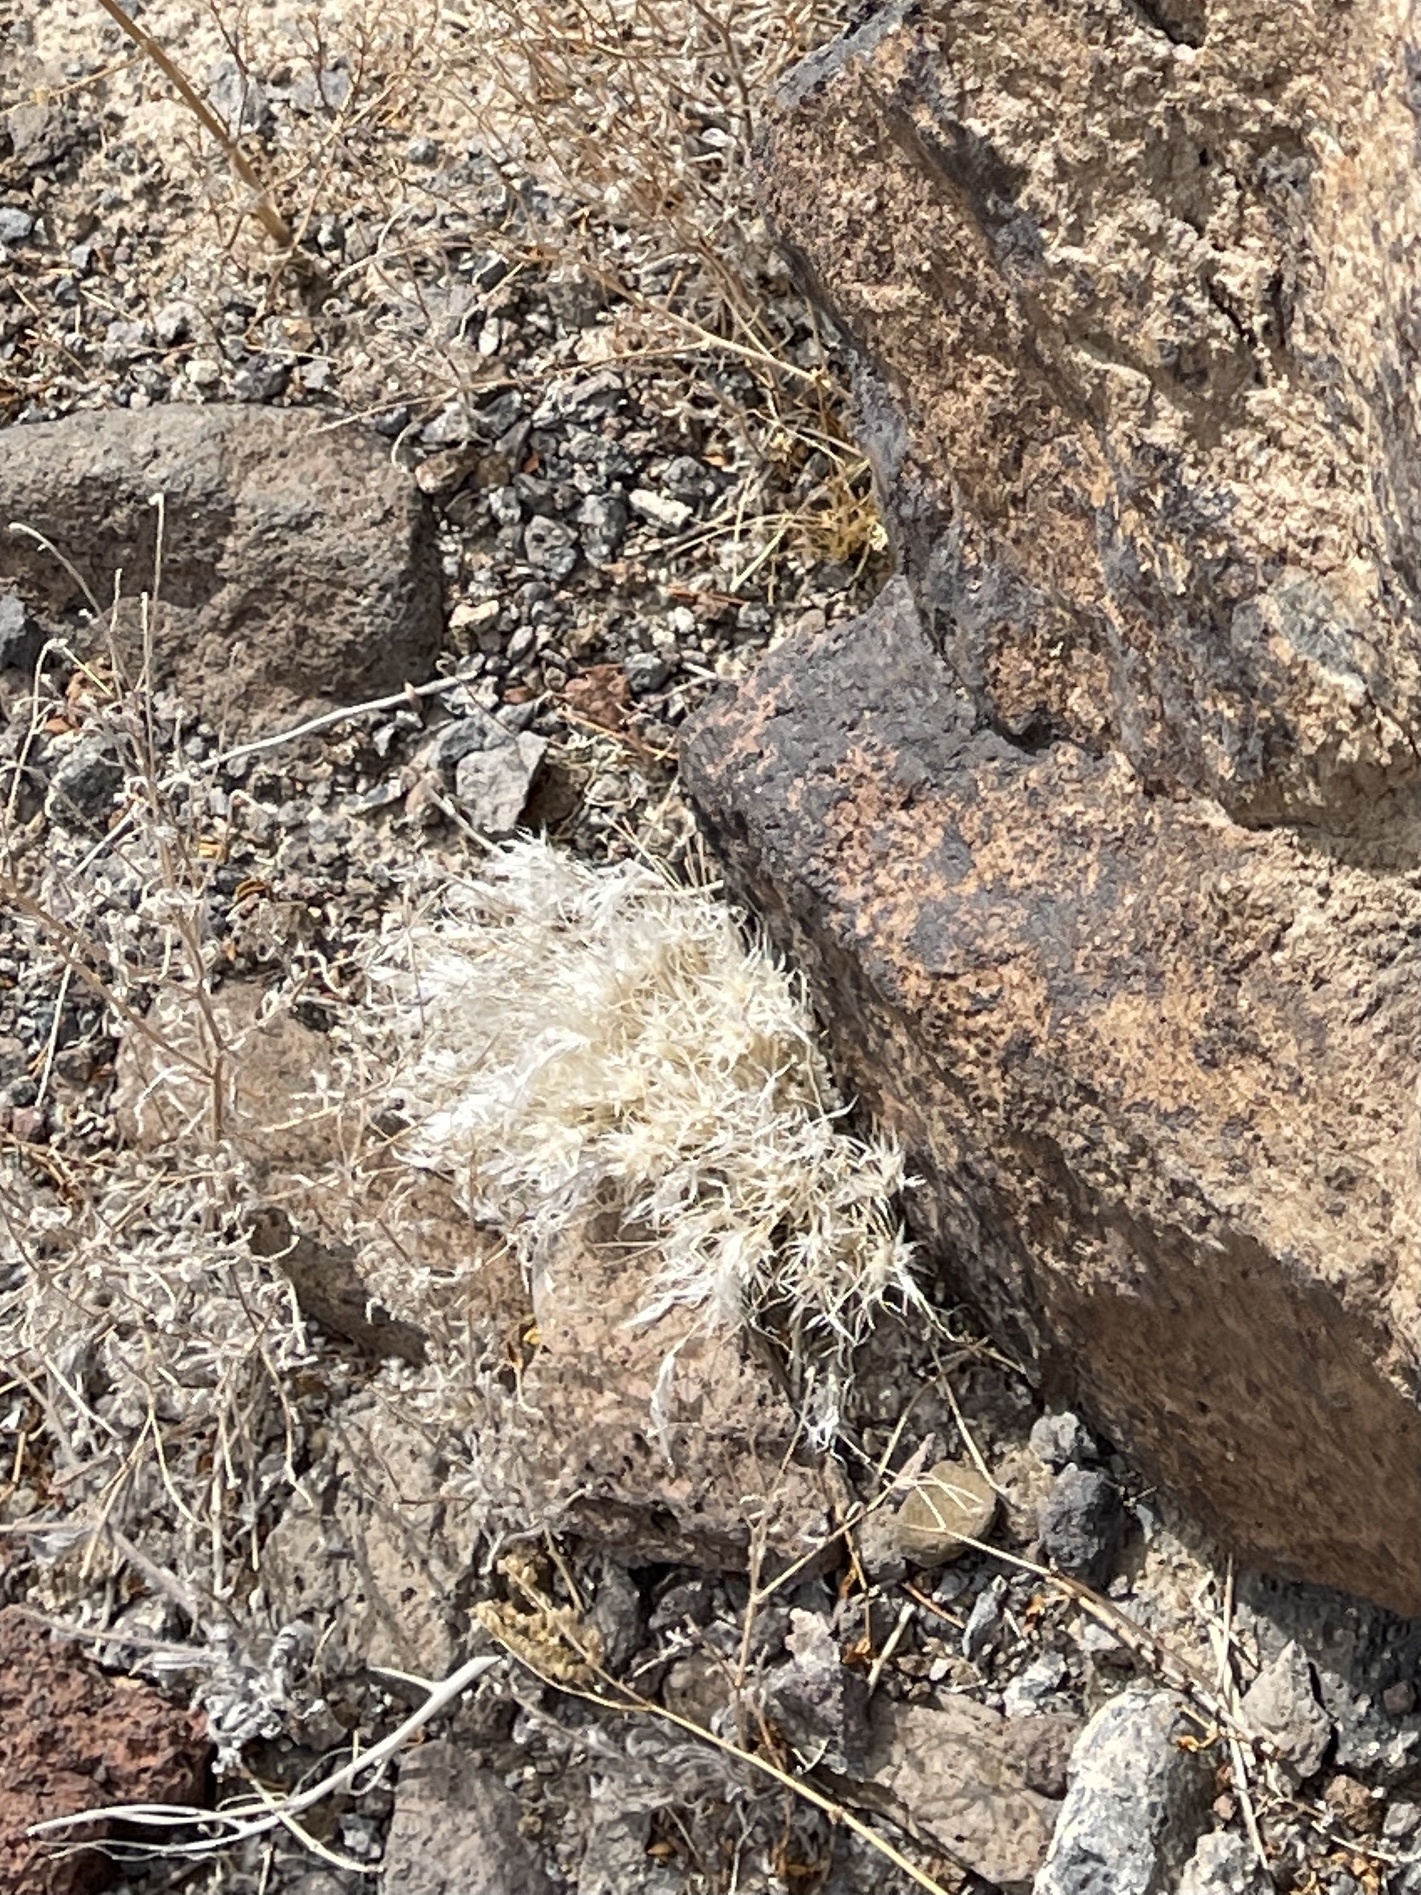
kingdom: Plantae
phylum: Tracheophyta
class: Liliopsida
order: Poales
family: Poaceae
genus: Dasyochloa
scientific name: Dasyochloa pulchella
